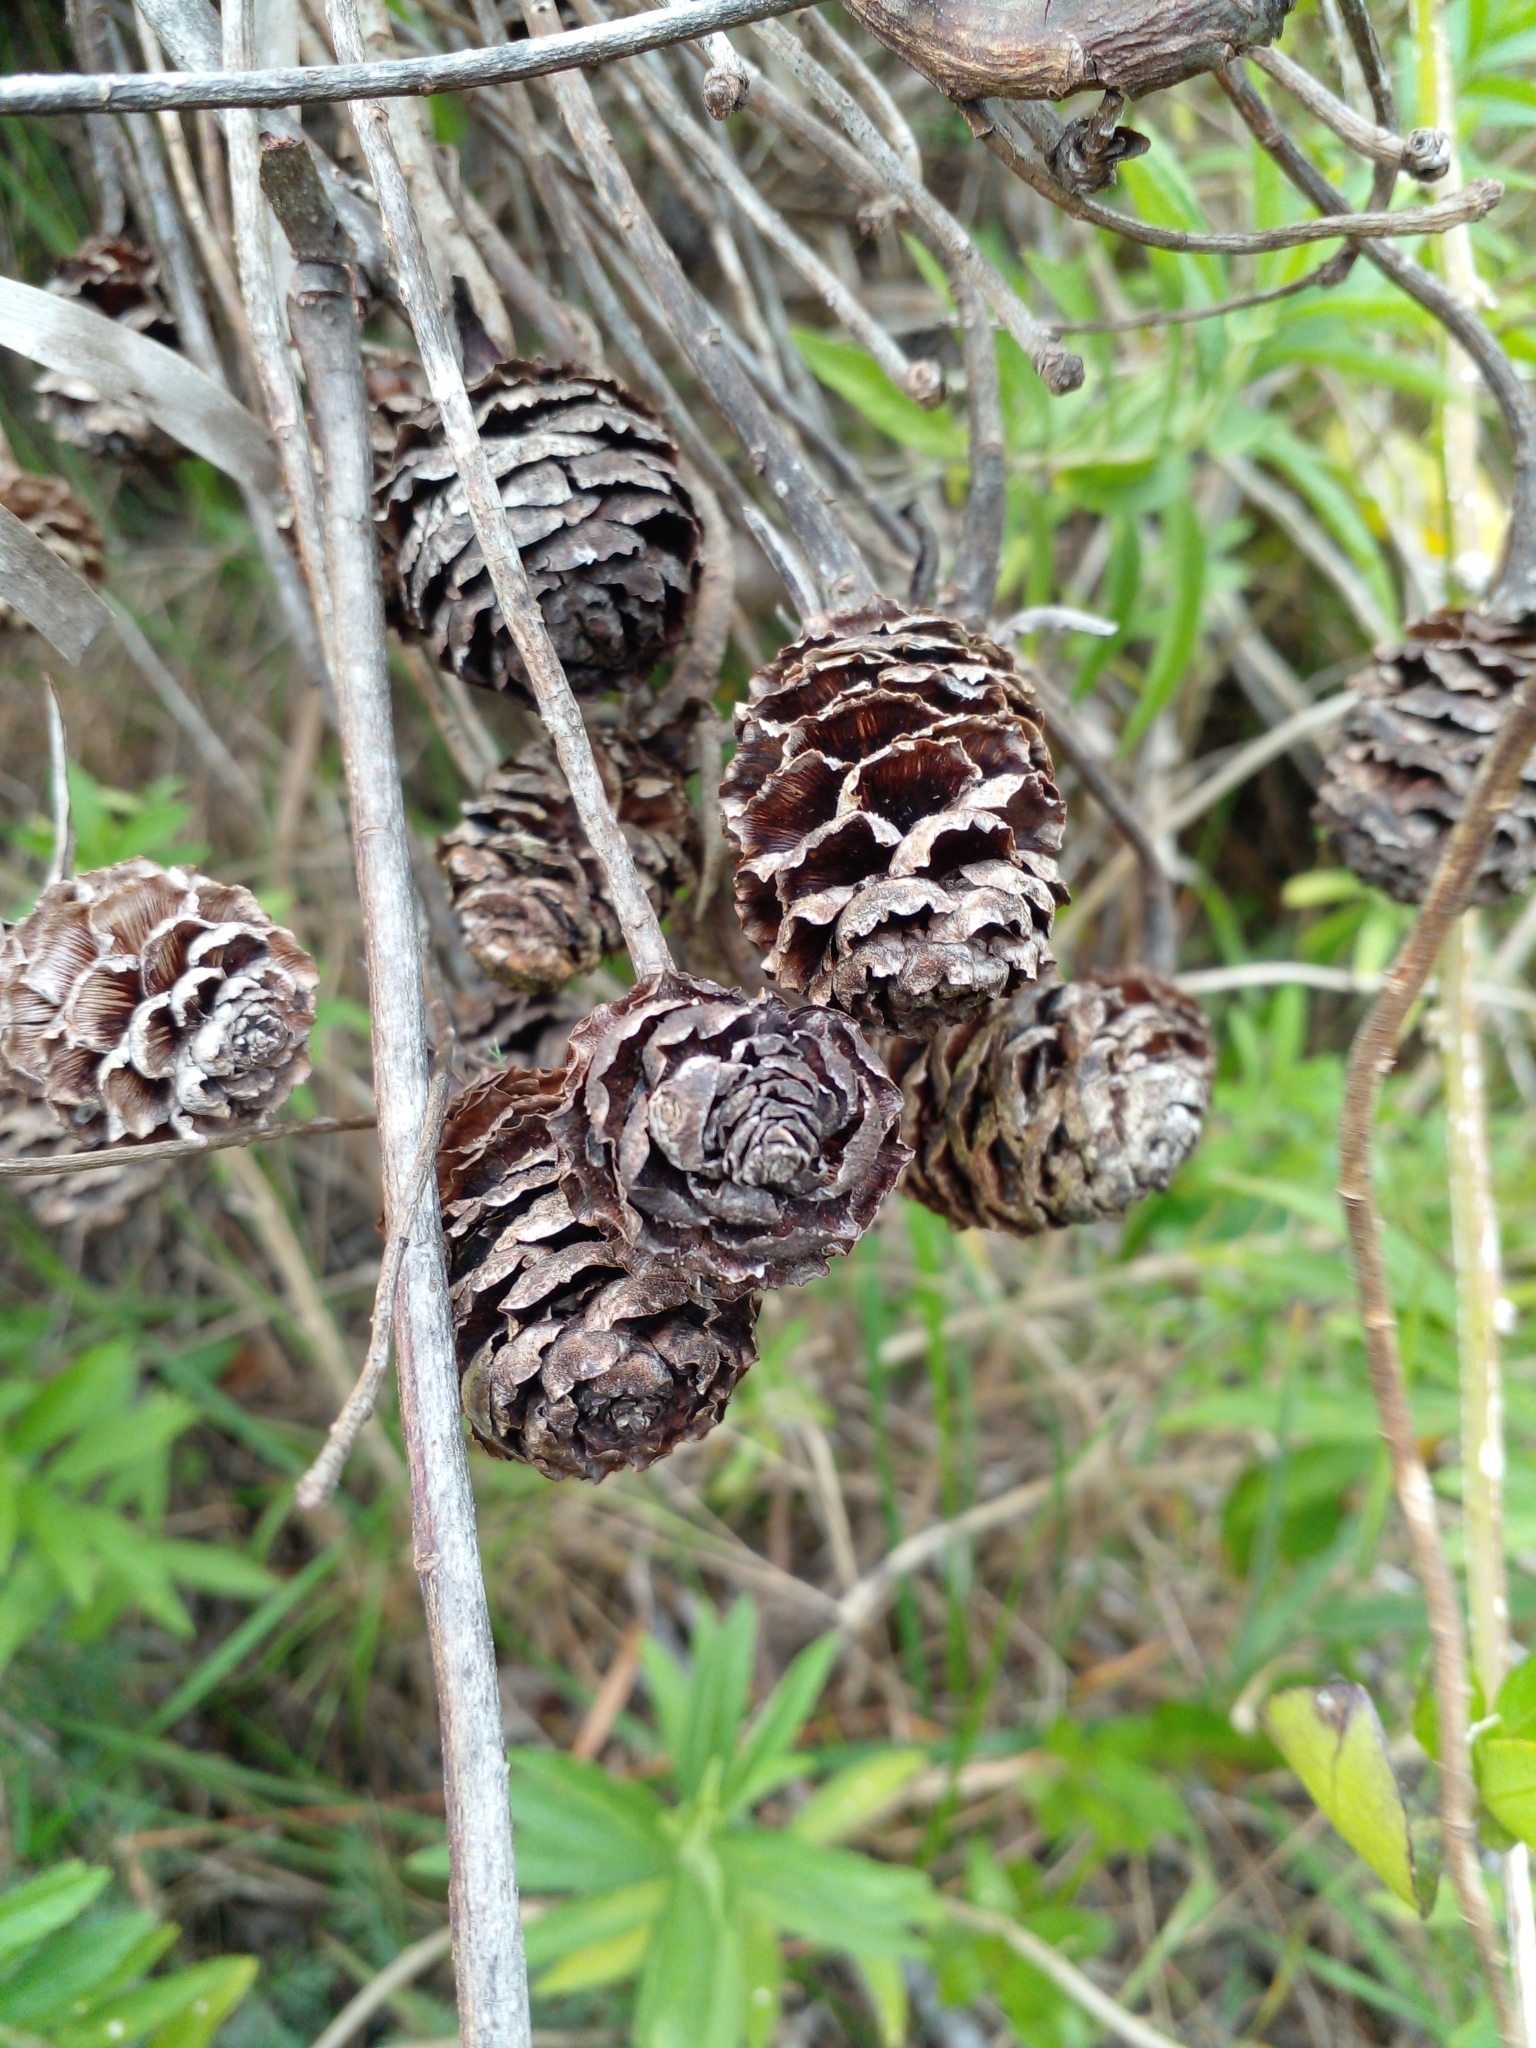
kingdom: Plantae
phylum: Tracheophyta
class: Magnoliopsida
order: Proteales
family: Proteaceae
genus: Leucadendron
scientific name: Leucadendron xanthoconus
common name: Sickle-leaf conebush
